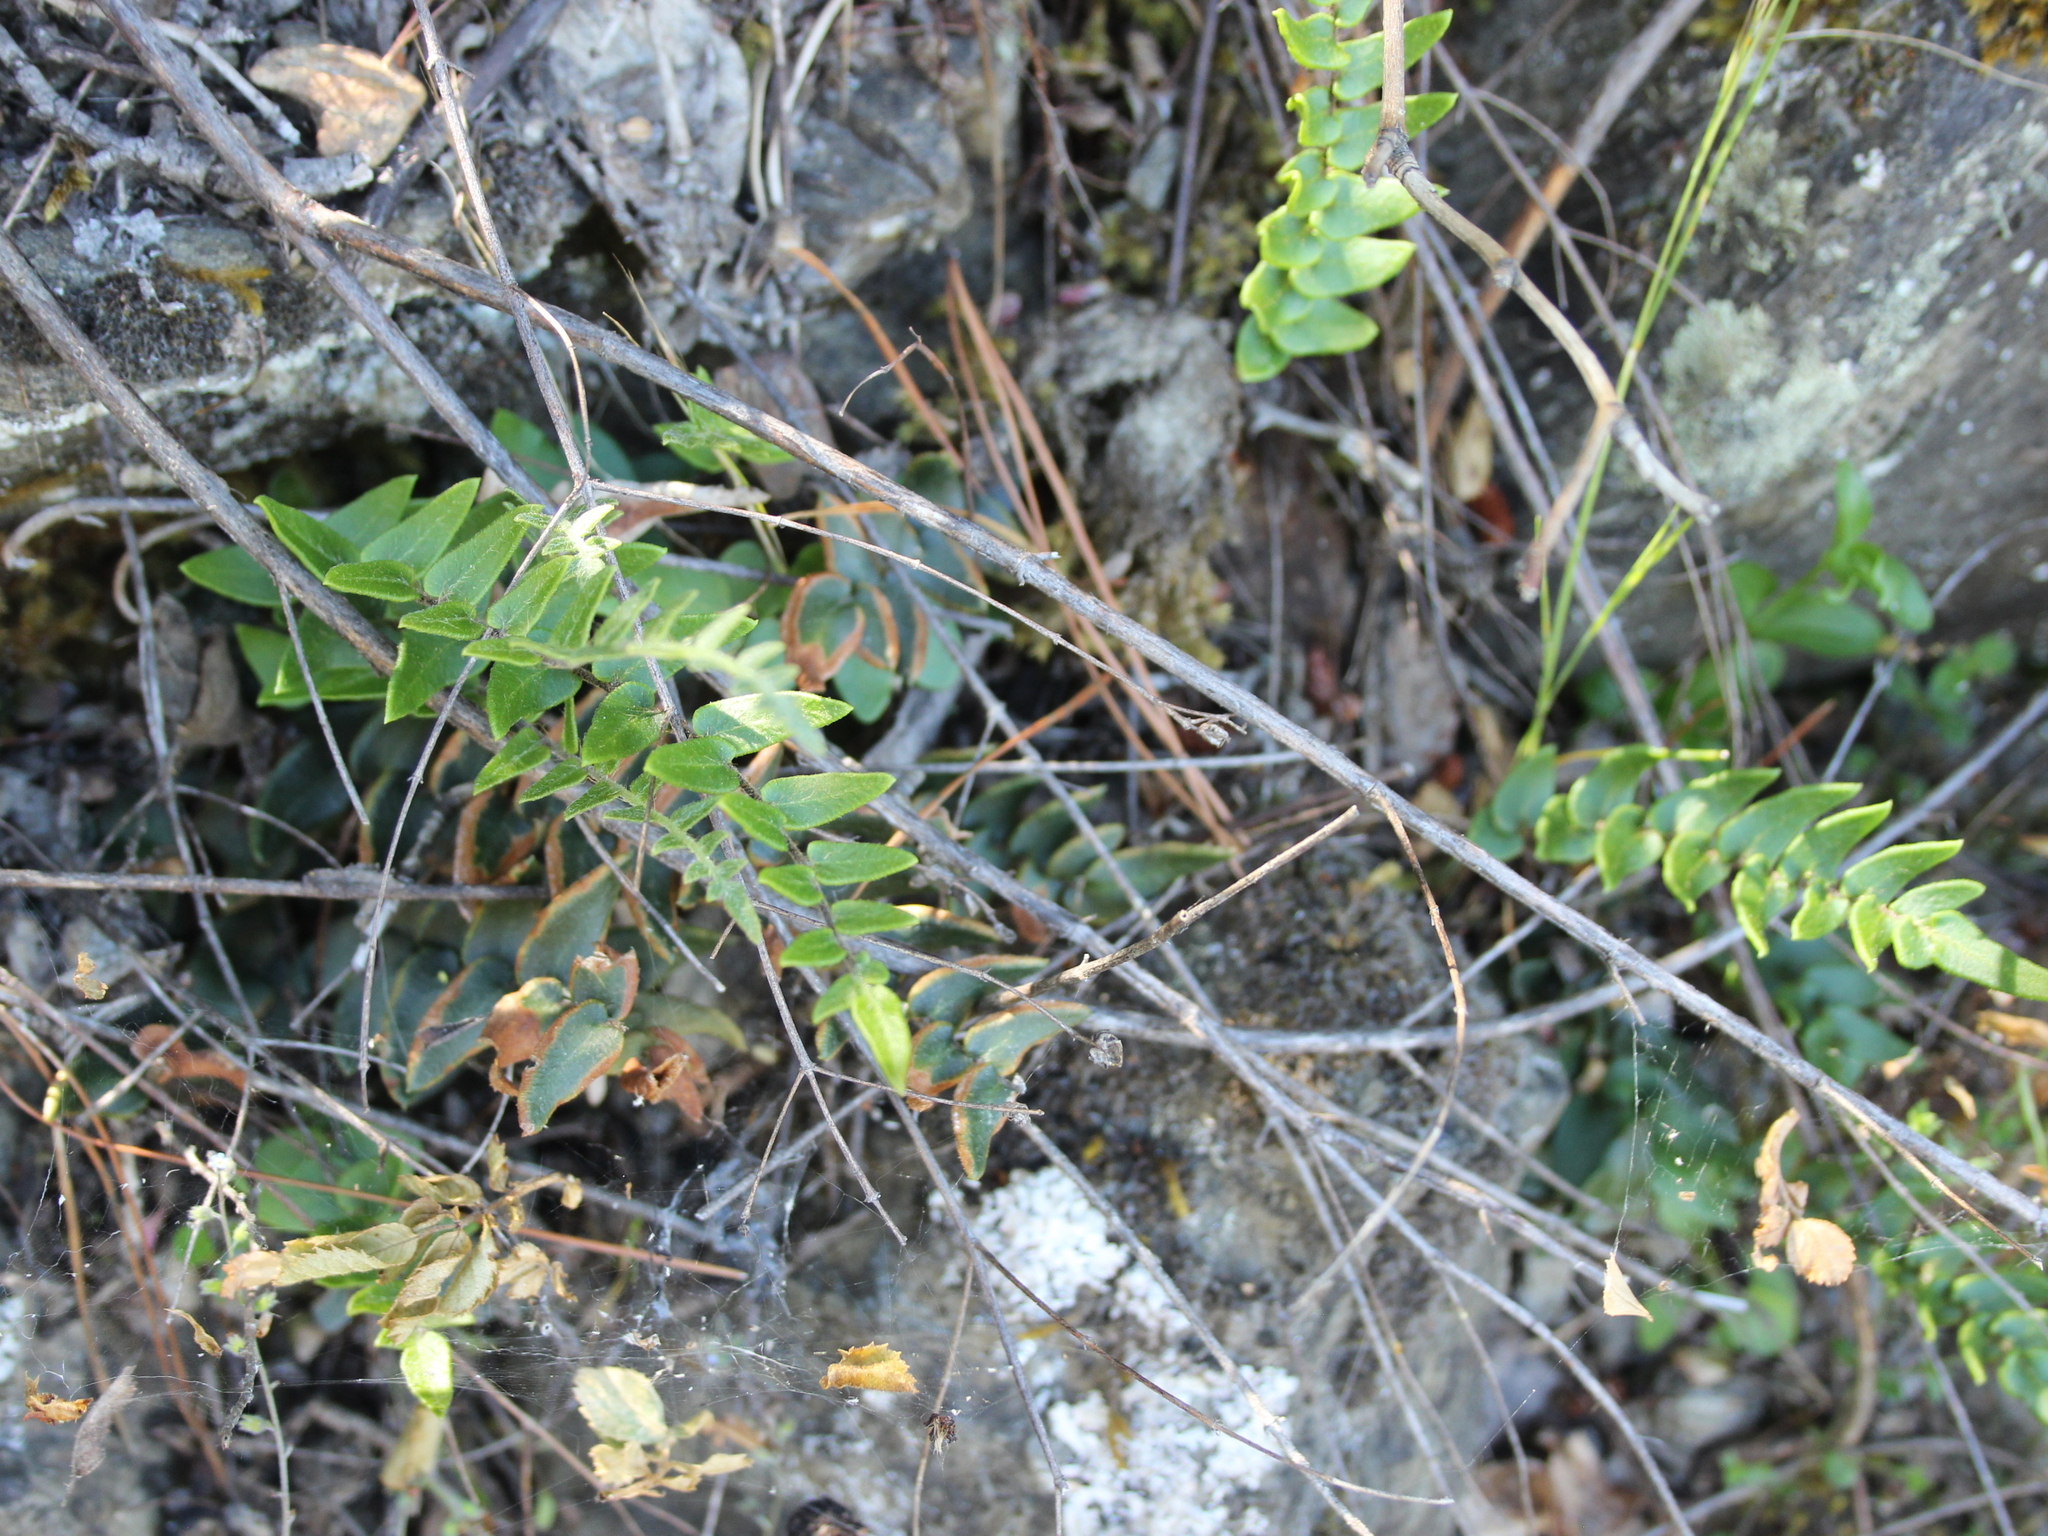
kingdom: Plantae
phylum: Tracheophyta
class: Polypodiopsida
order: Polypodiales
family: Pteridaceae
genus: Pellaea
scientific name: Pellaea calidirupium
